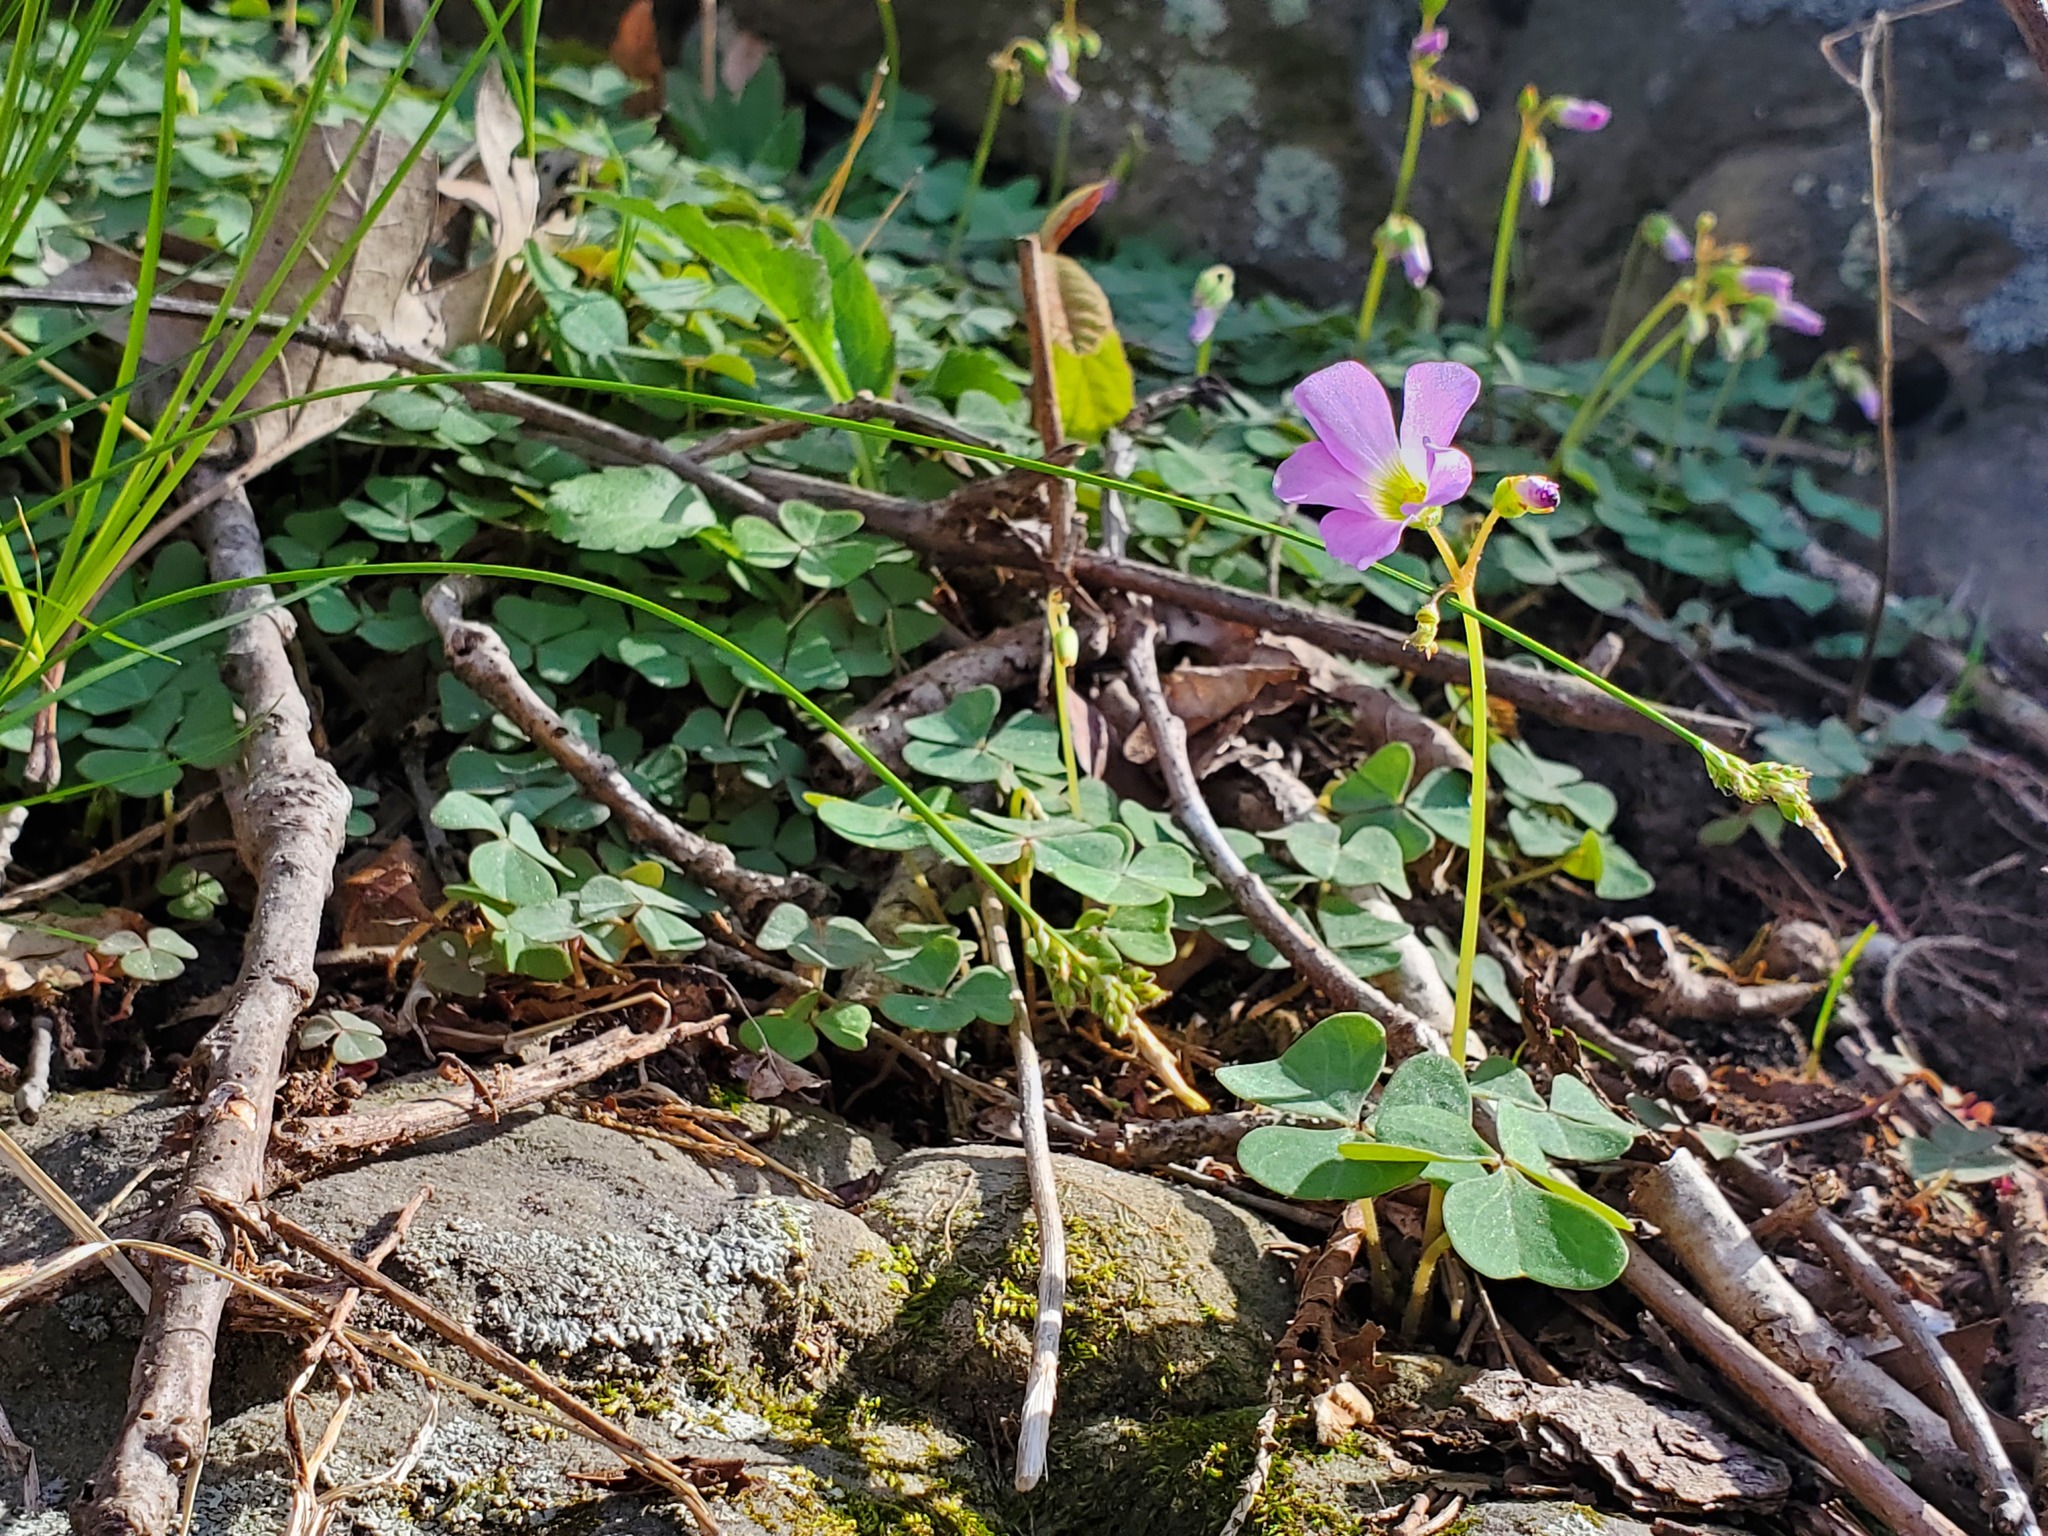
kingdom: Plantae
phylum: Tracheophyta
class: Magnoliopsida
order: Oxalidales
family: Oxalidaceae
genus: Oxalis
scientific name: Oxalis violacea
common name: Violet wood-sorrel
